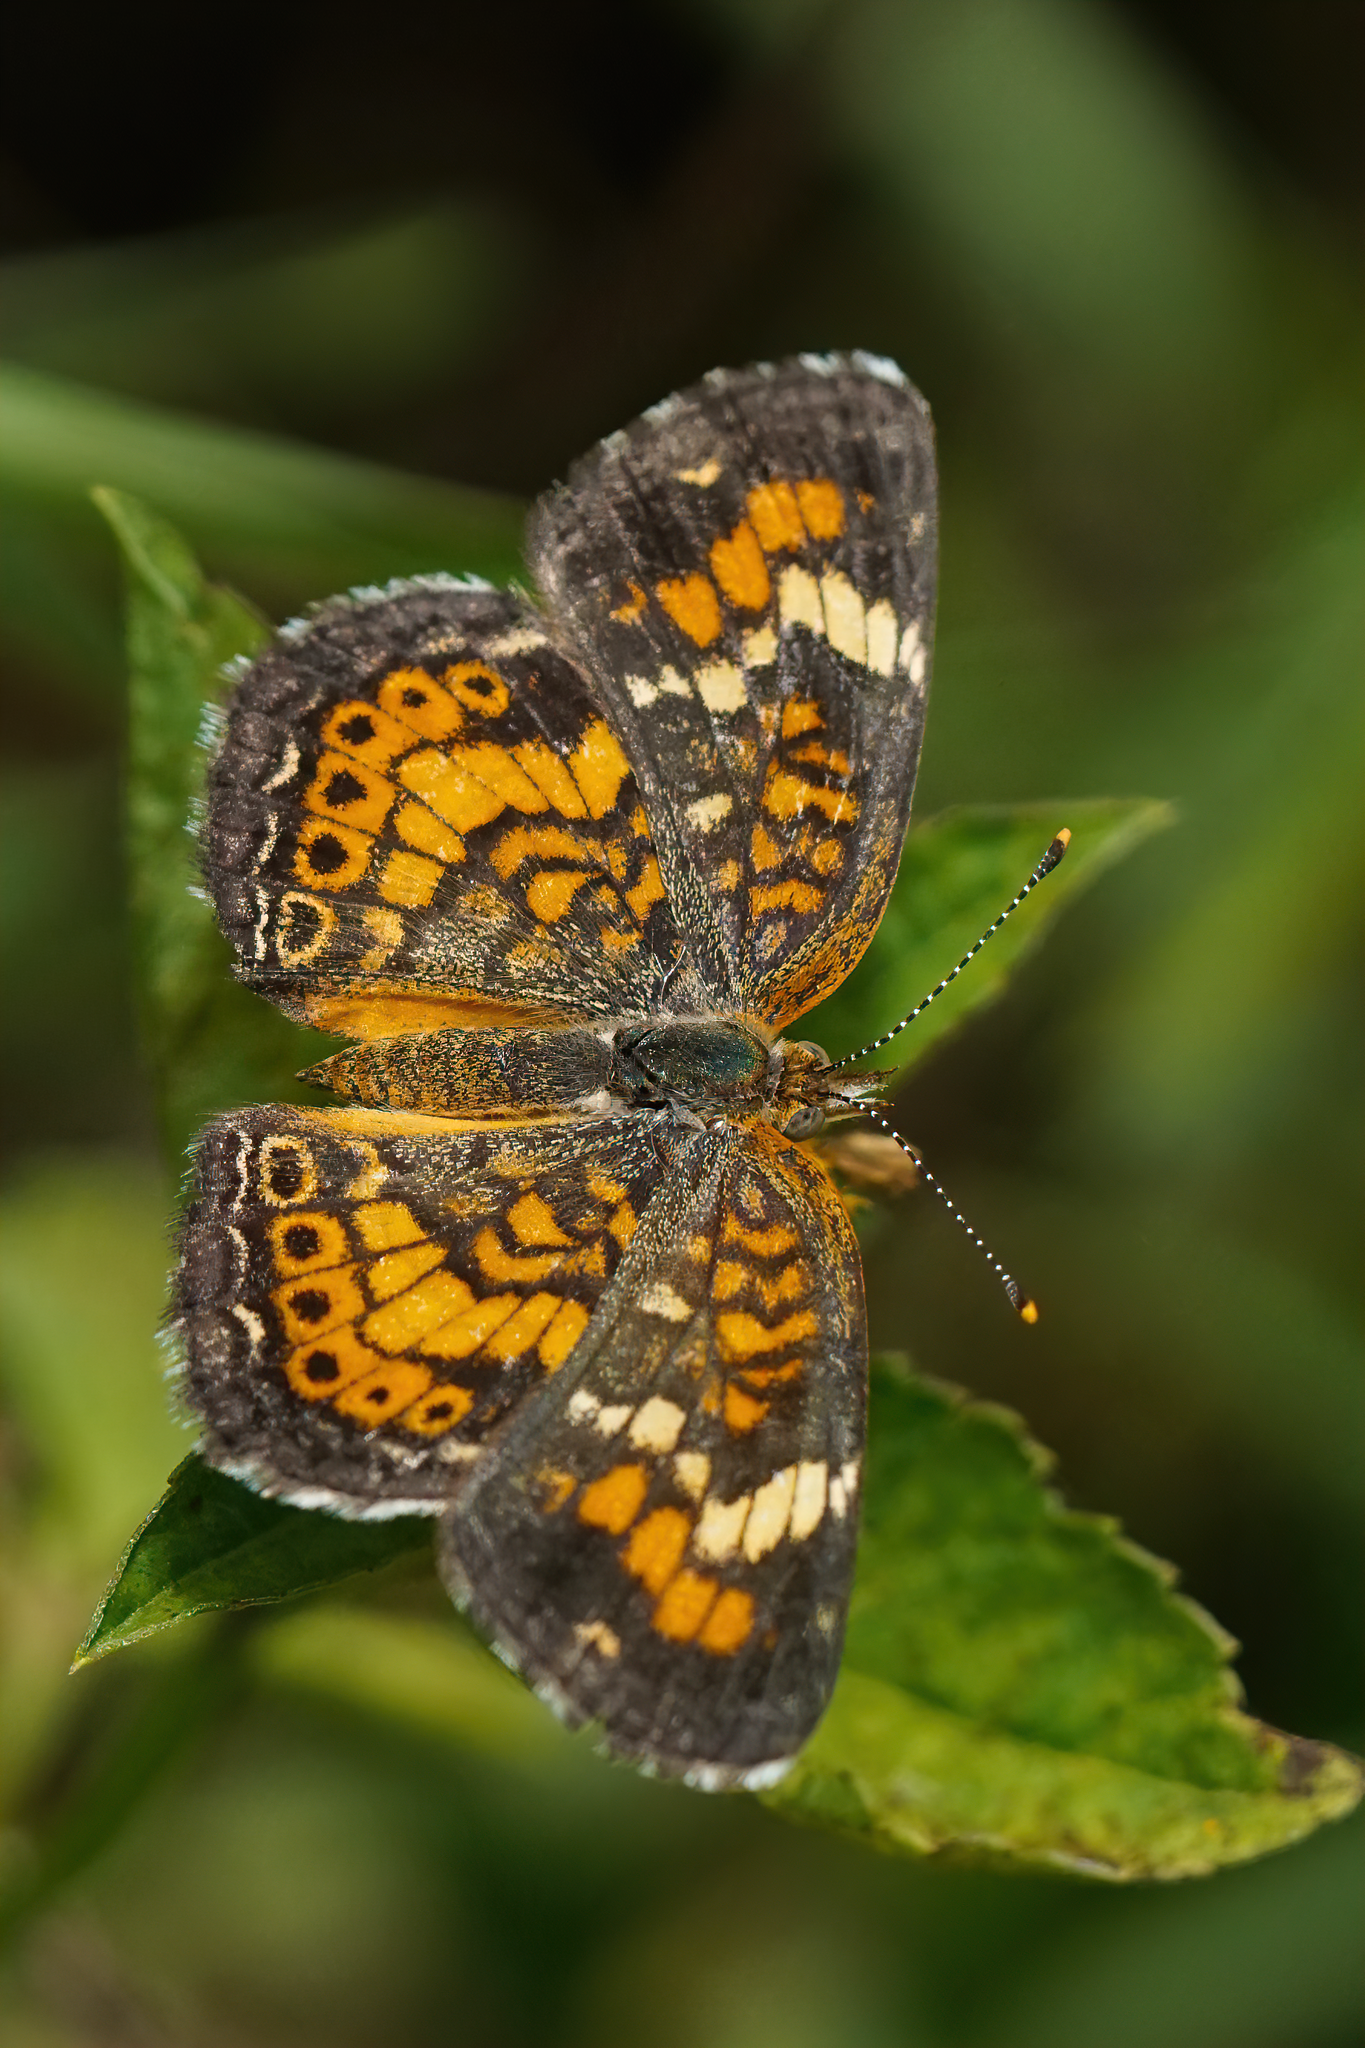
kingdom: Animalia
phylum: Arthropoda
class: Insecta
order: Lepidoptera
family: Nymphalidae
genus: Phyciodes
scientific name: Phyciodes phaon
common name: Phaon crescent
